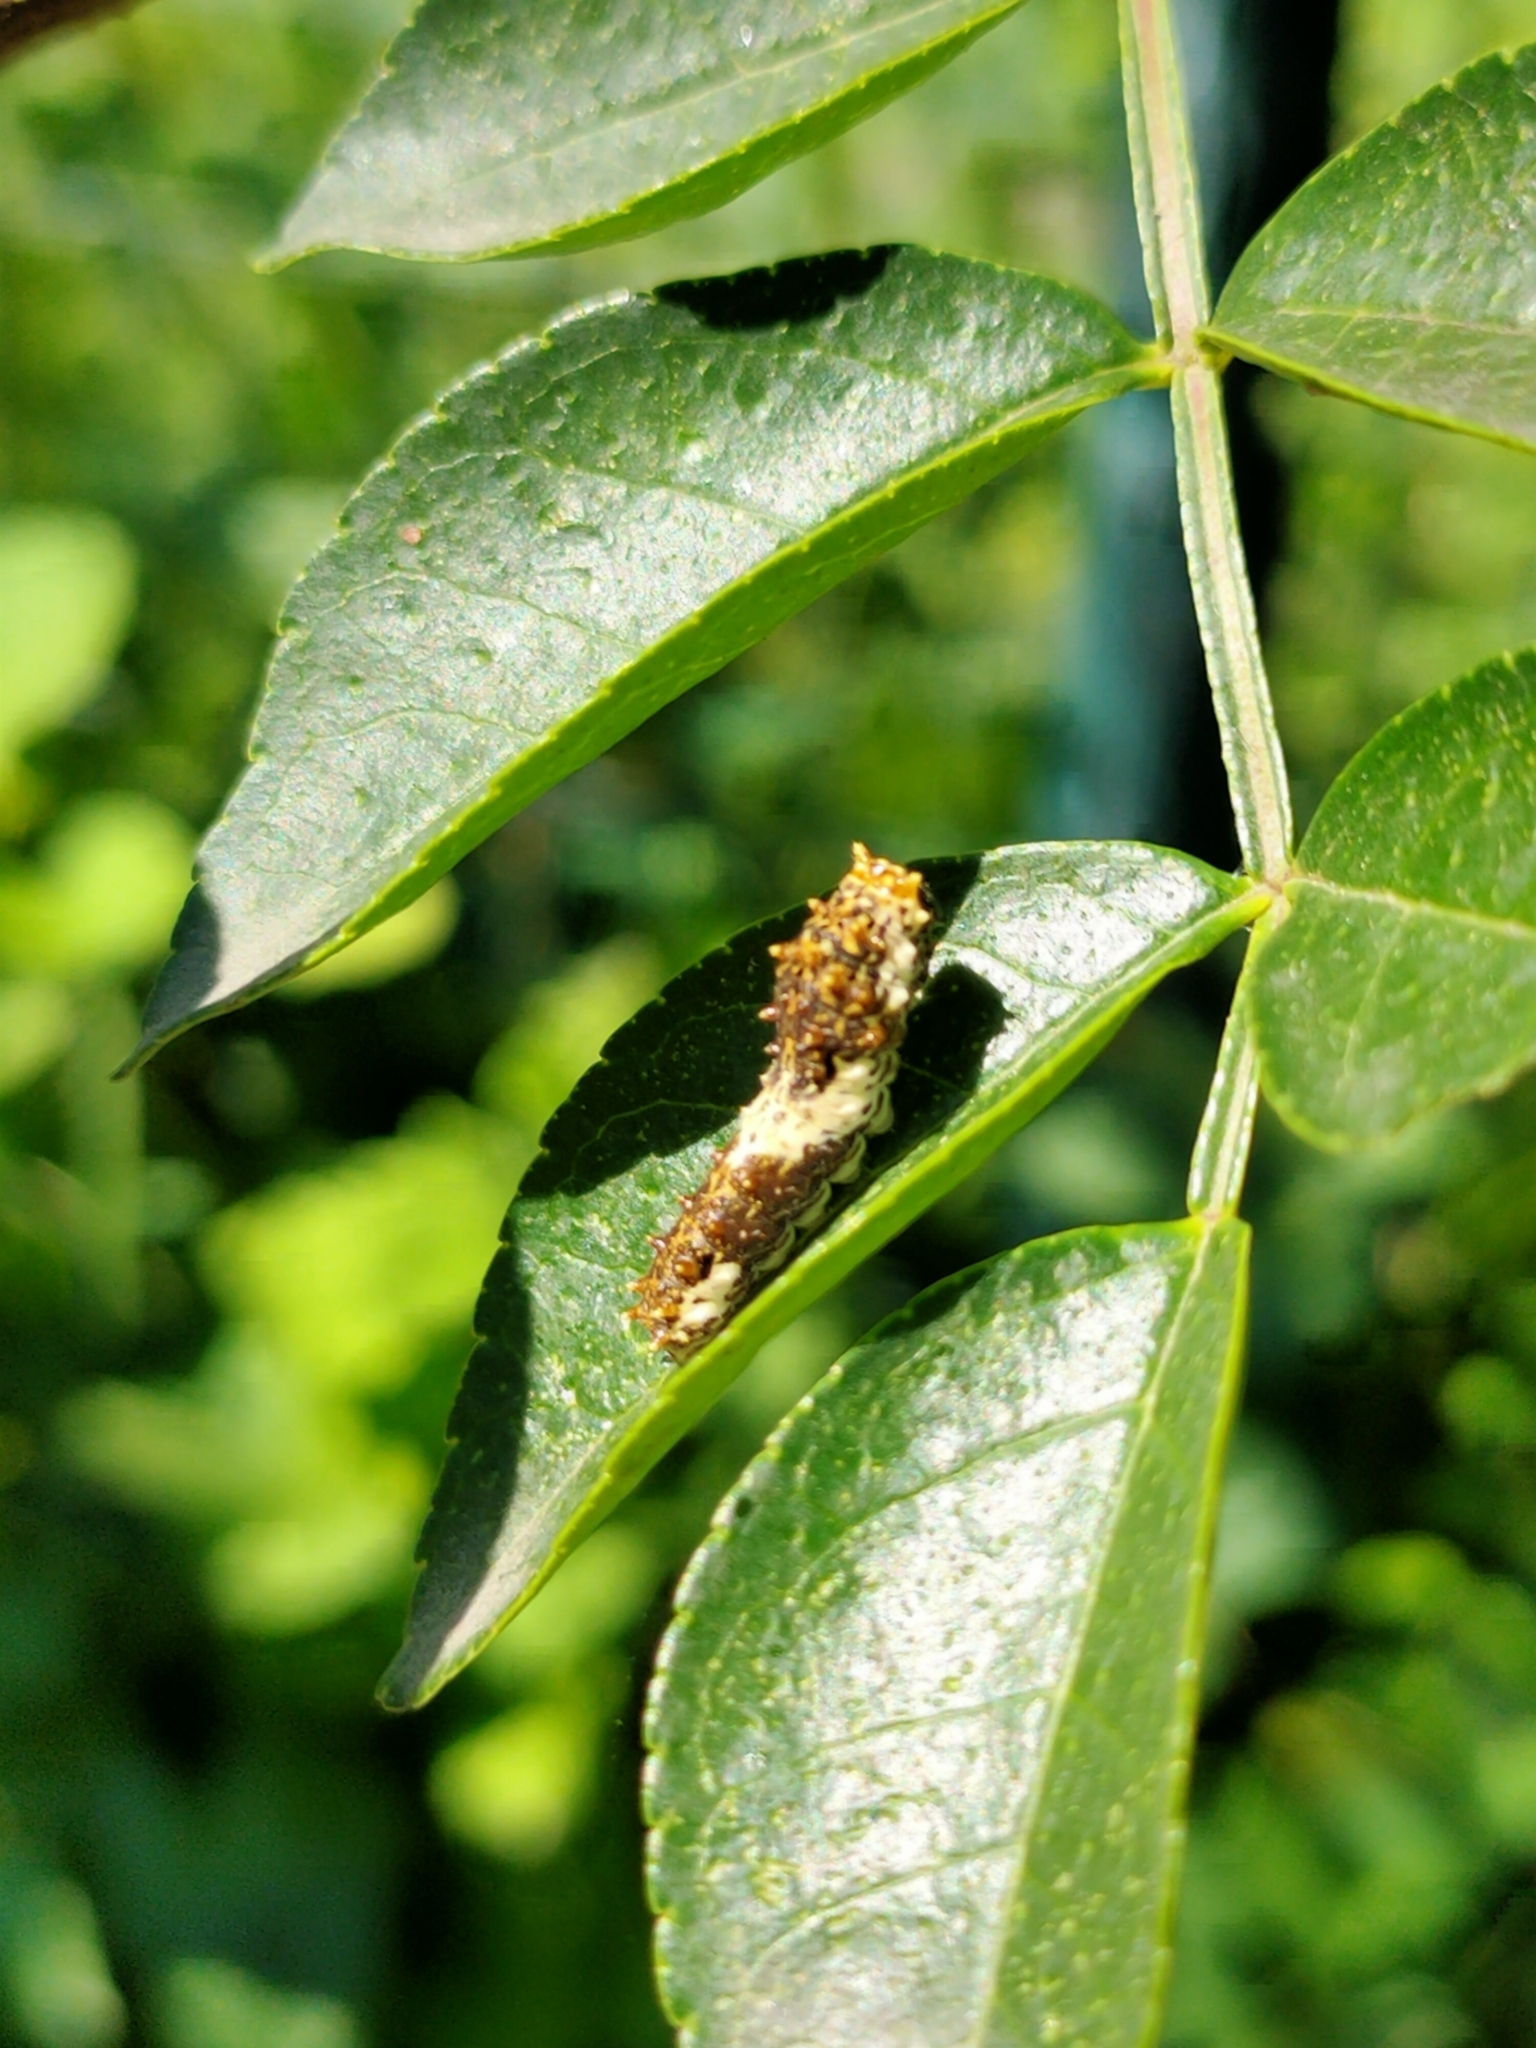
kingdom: Animalia
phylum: Arthropoda
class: Insecta
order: Lepidoptera
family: Papilionidae
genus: Papilio
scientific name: Papilio xuthus
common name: Asian swallowtail
